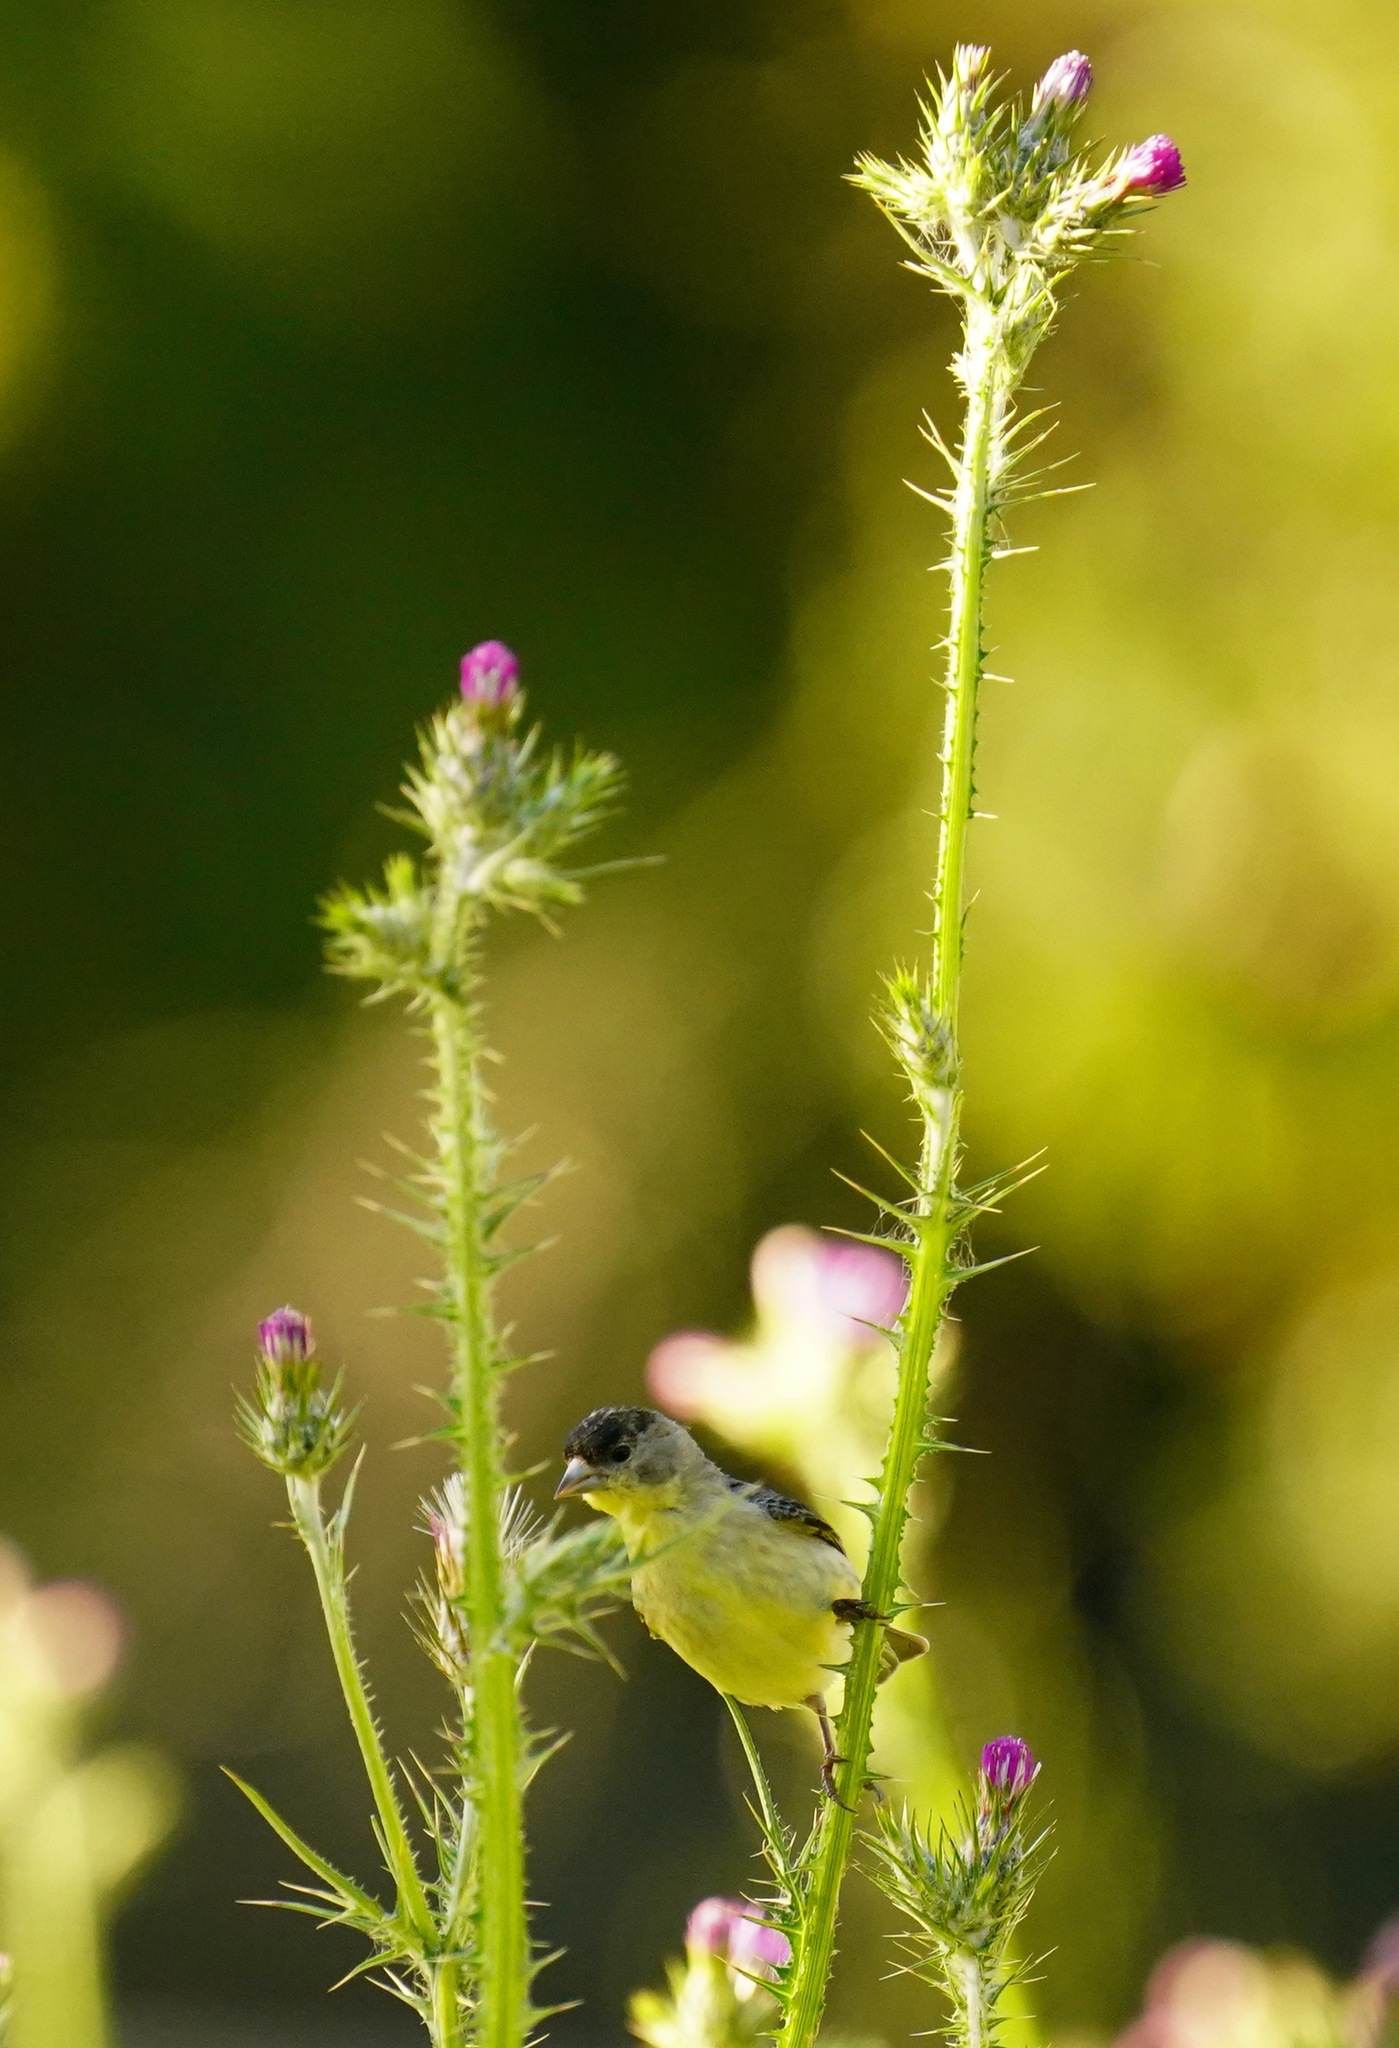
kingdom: Animalia
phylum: Chordata
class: Aves
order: Passeriformes
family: Fringillidae
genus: Spinus
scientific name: Spinus psaltria
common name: Lesser goldfinch
